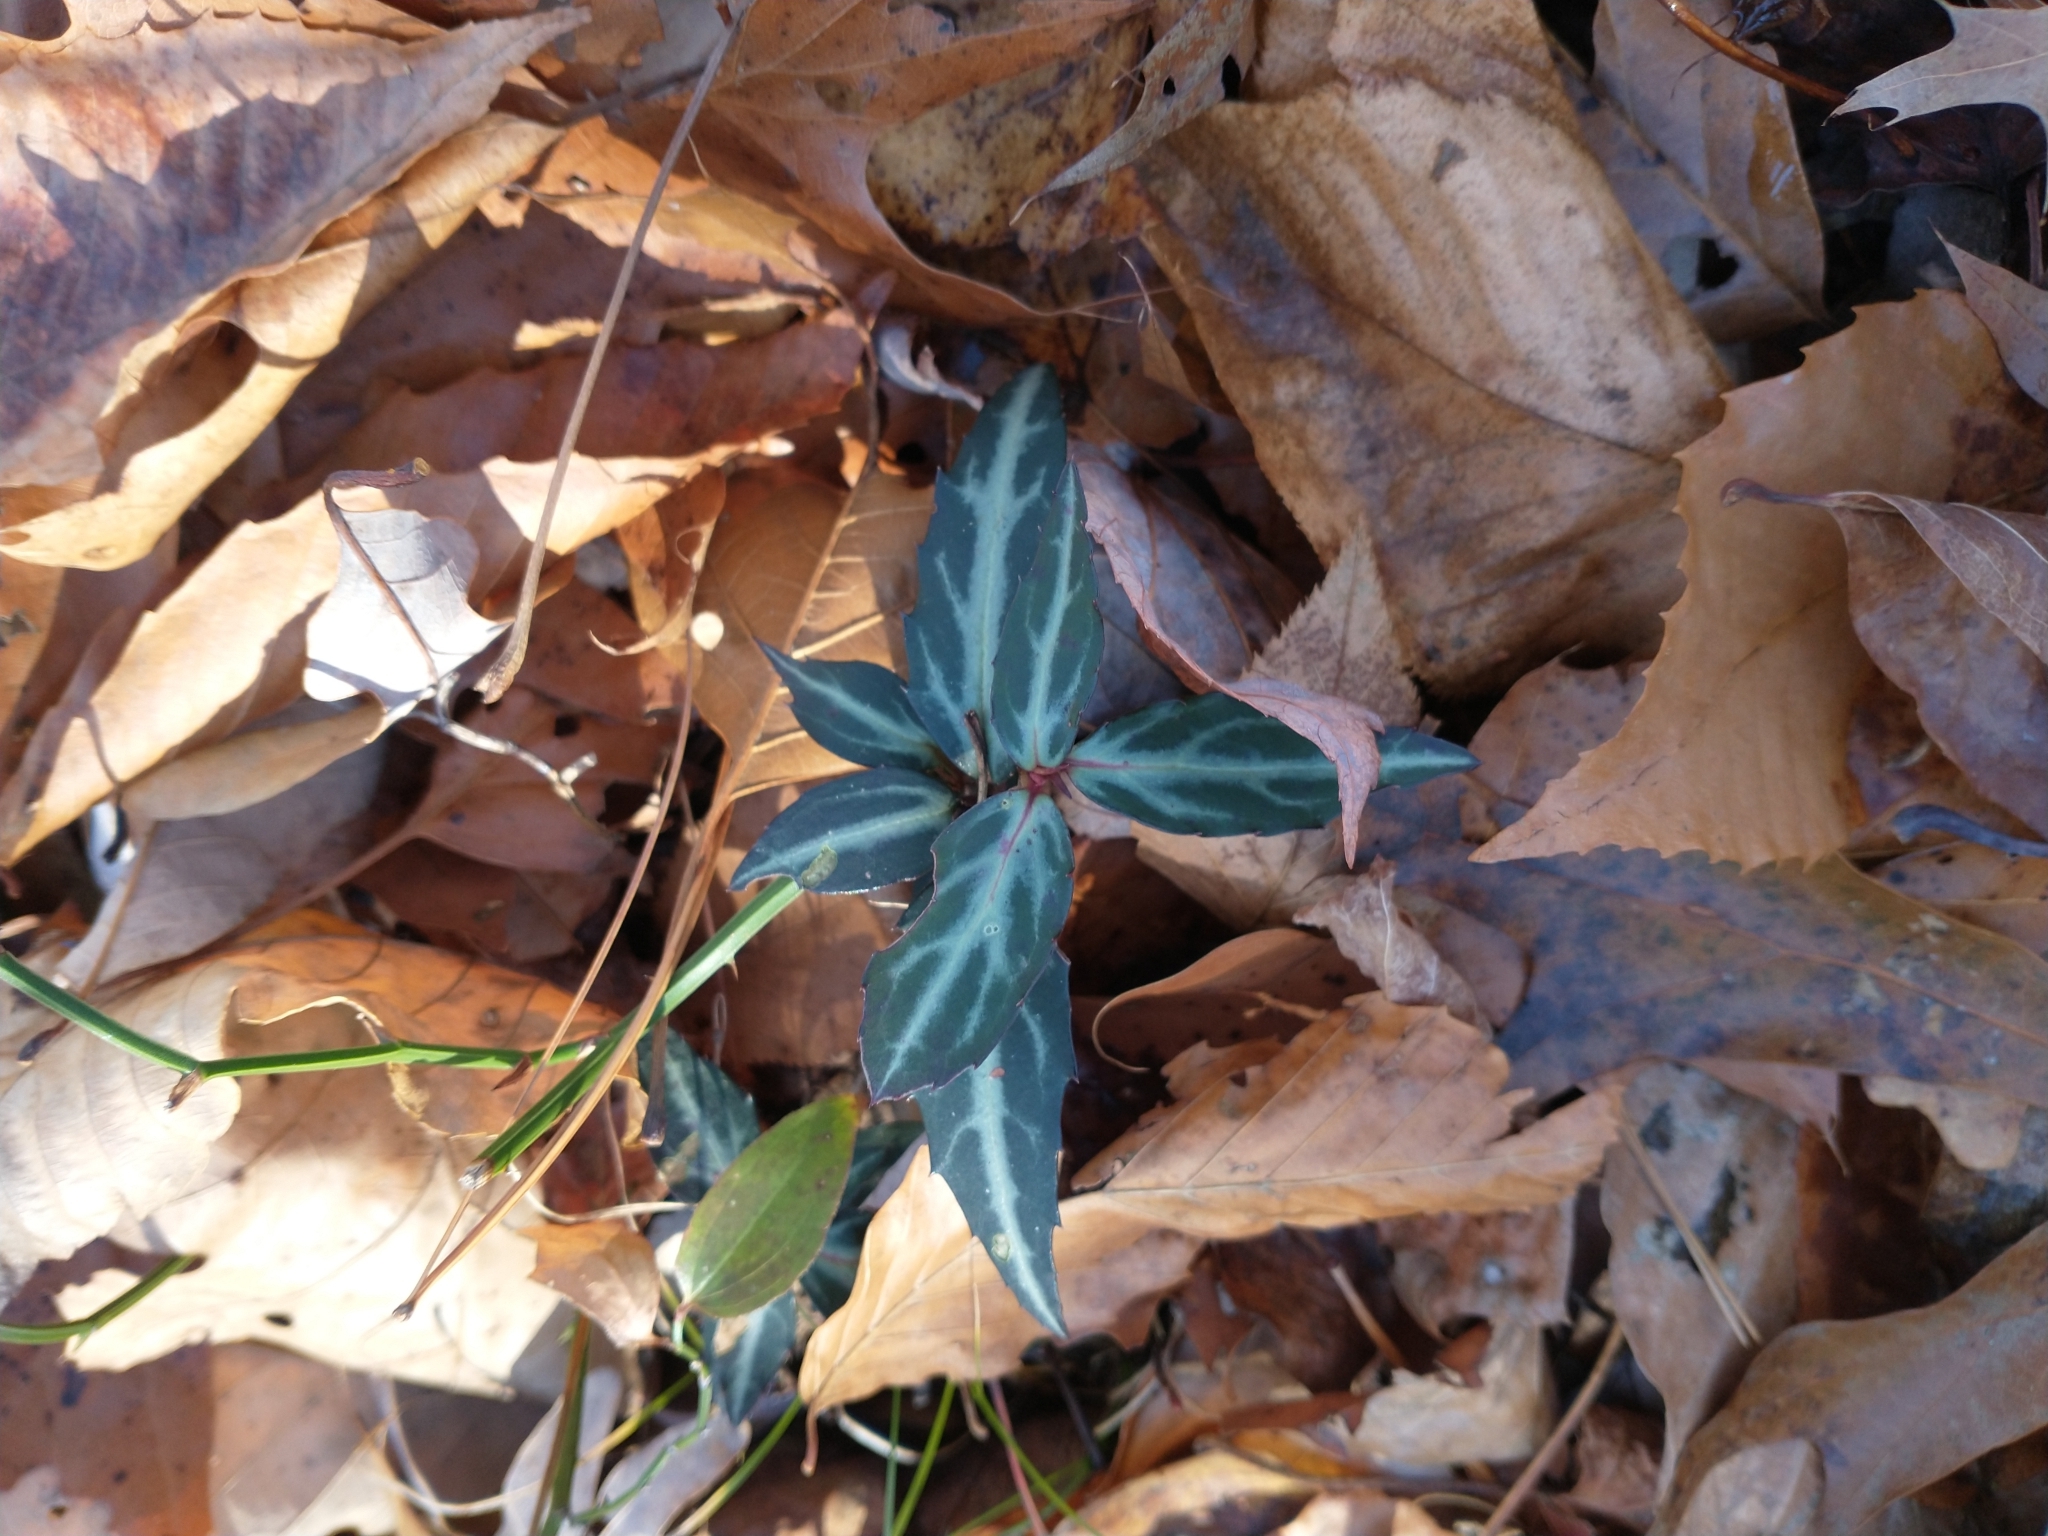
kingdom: Plantae
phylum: Tracheophyta
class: Magnoliopsida
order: Ericales
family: Ericaceae
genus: Chimaphila
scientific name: Chimaphila maculata
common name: Spotted pipsissewa
